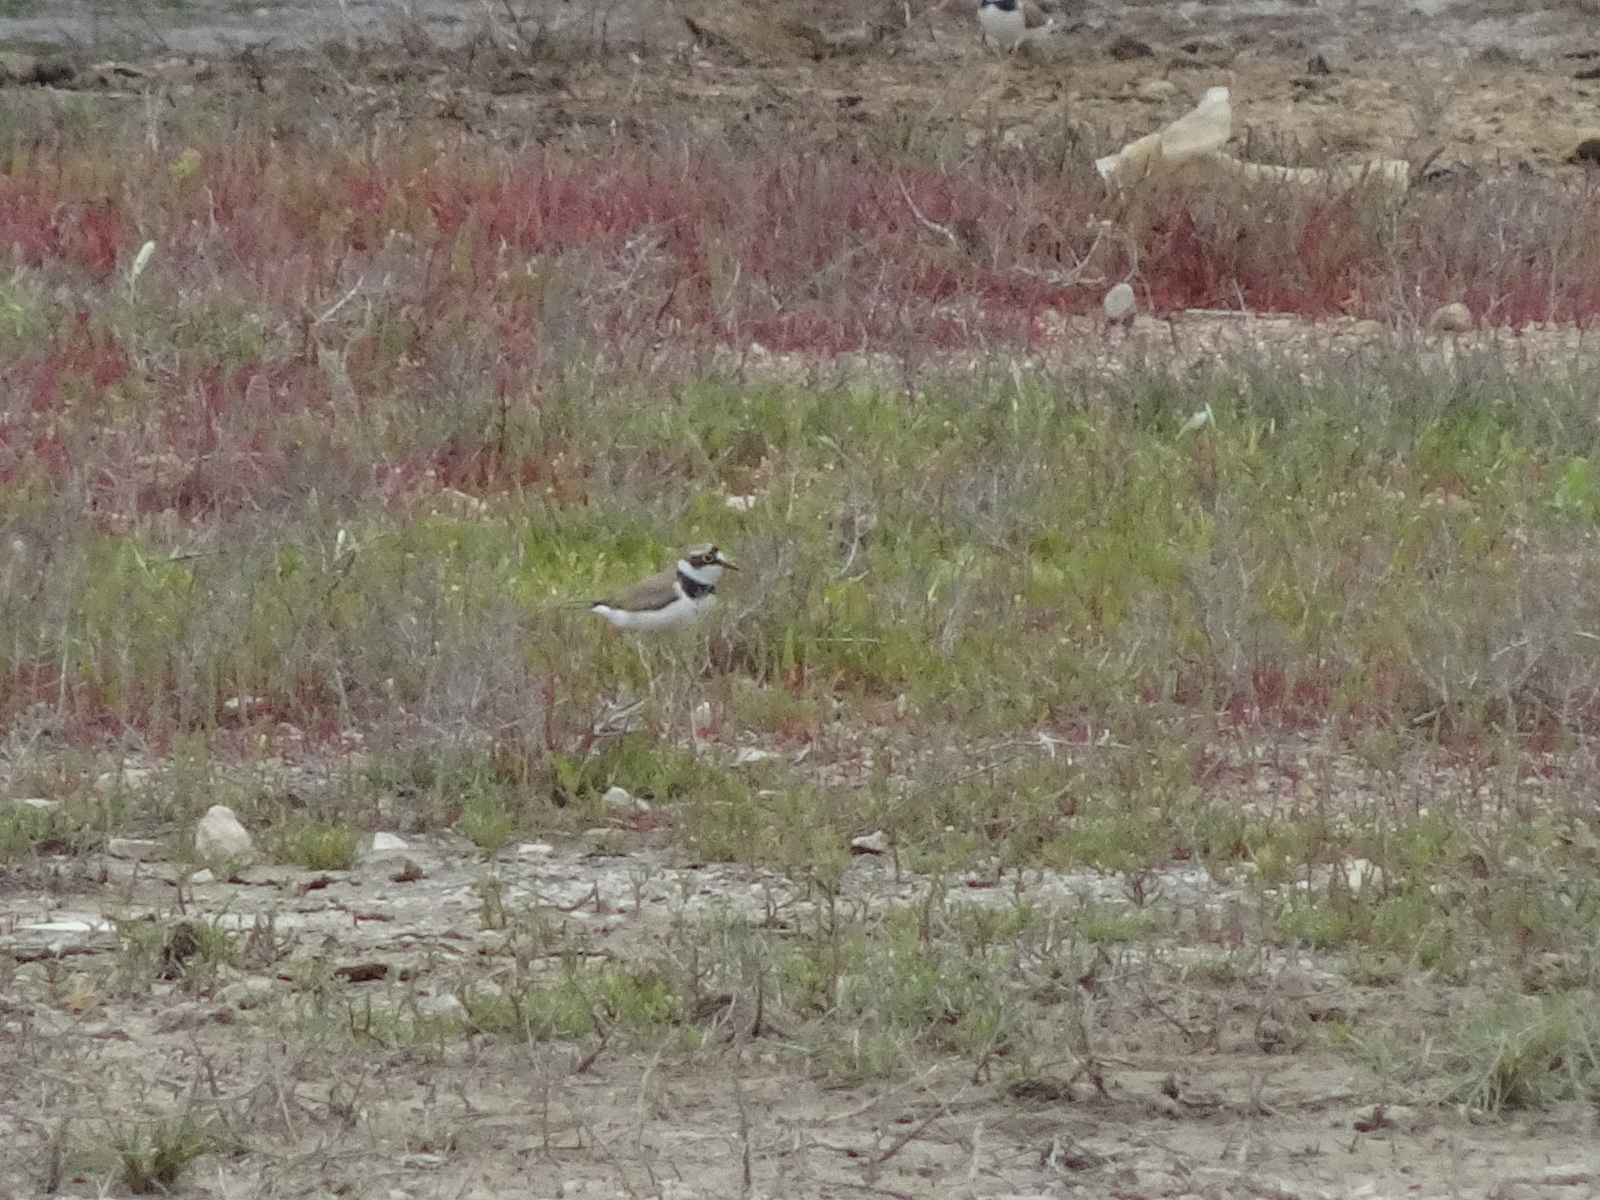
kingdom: Animalia
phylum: Chordata
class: Aves
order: Charadriiformes
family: Charadriidae
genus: Charadrius
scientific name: Charadrius dubius
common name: Little ringed plover
